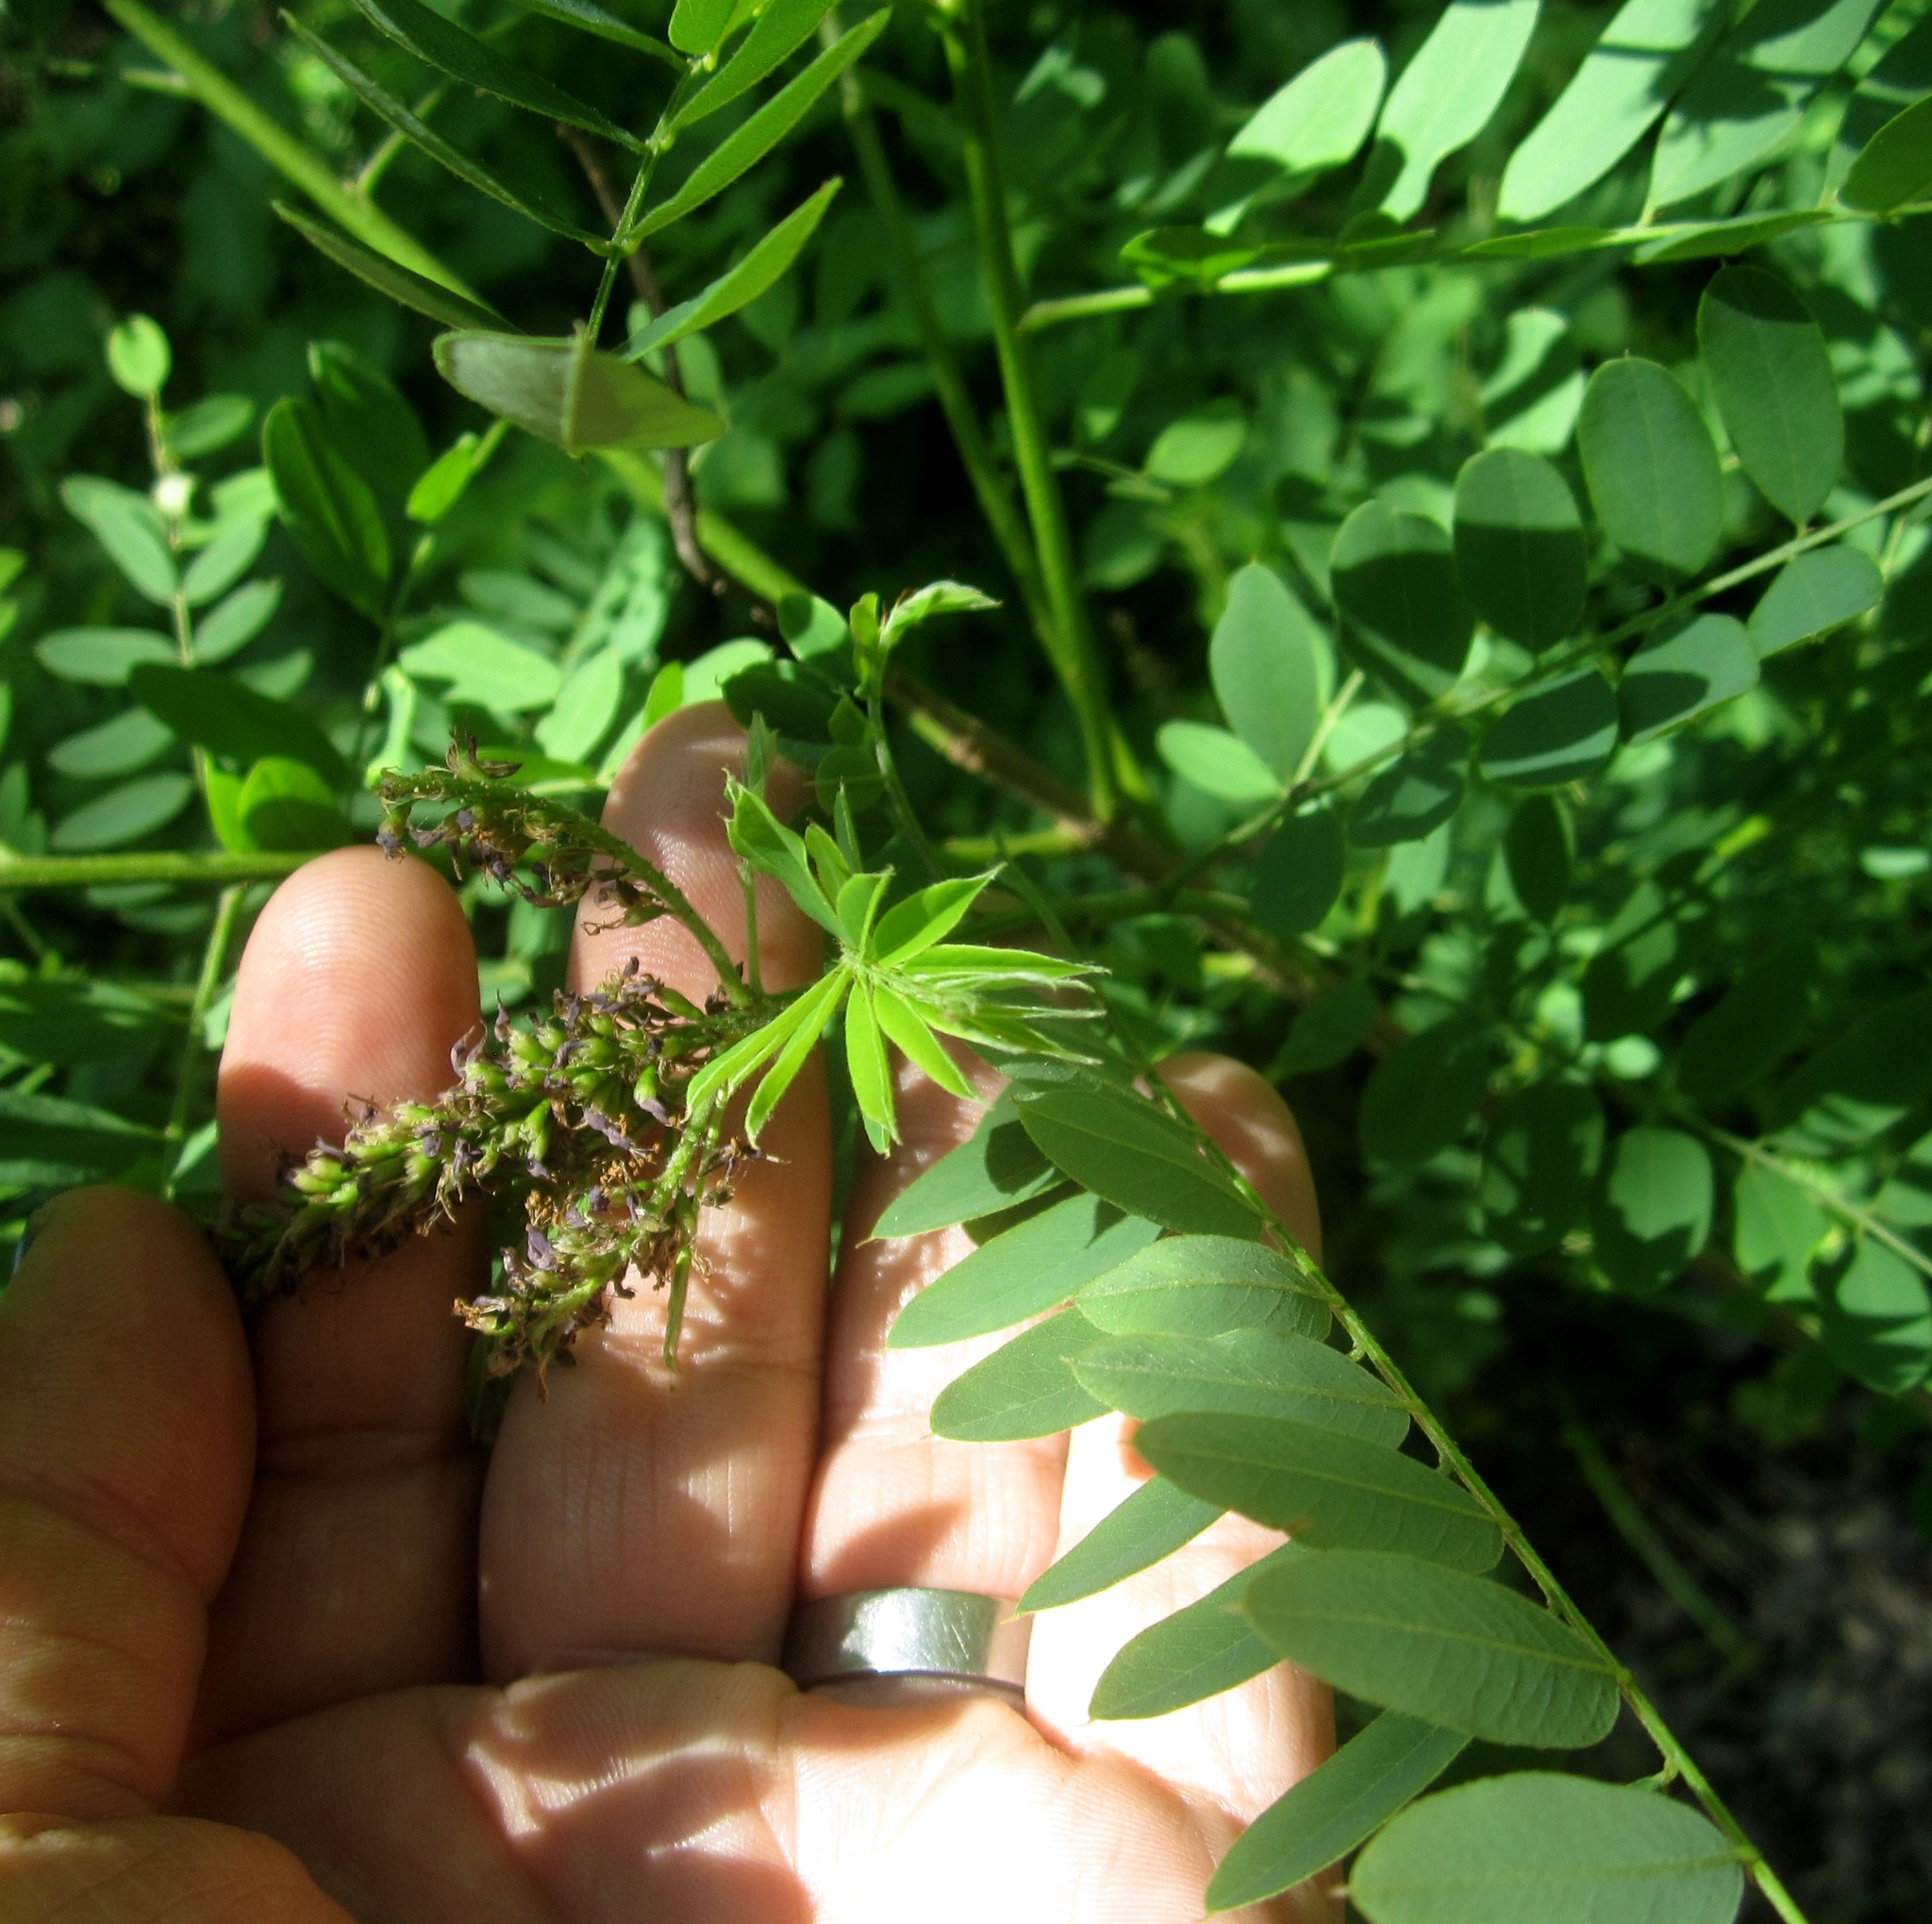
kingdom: Plantae
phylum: Tracheophyta
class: Magnoliopsida
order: Fabales
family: Fabaceae
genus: Amorpha
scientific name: Amorpha fruticosa
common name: False indigo
